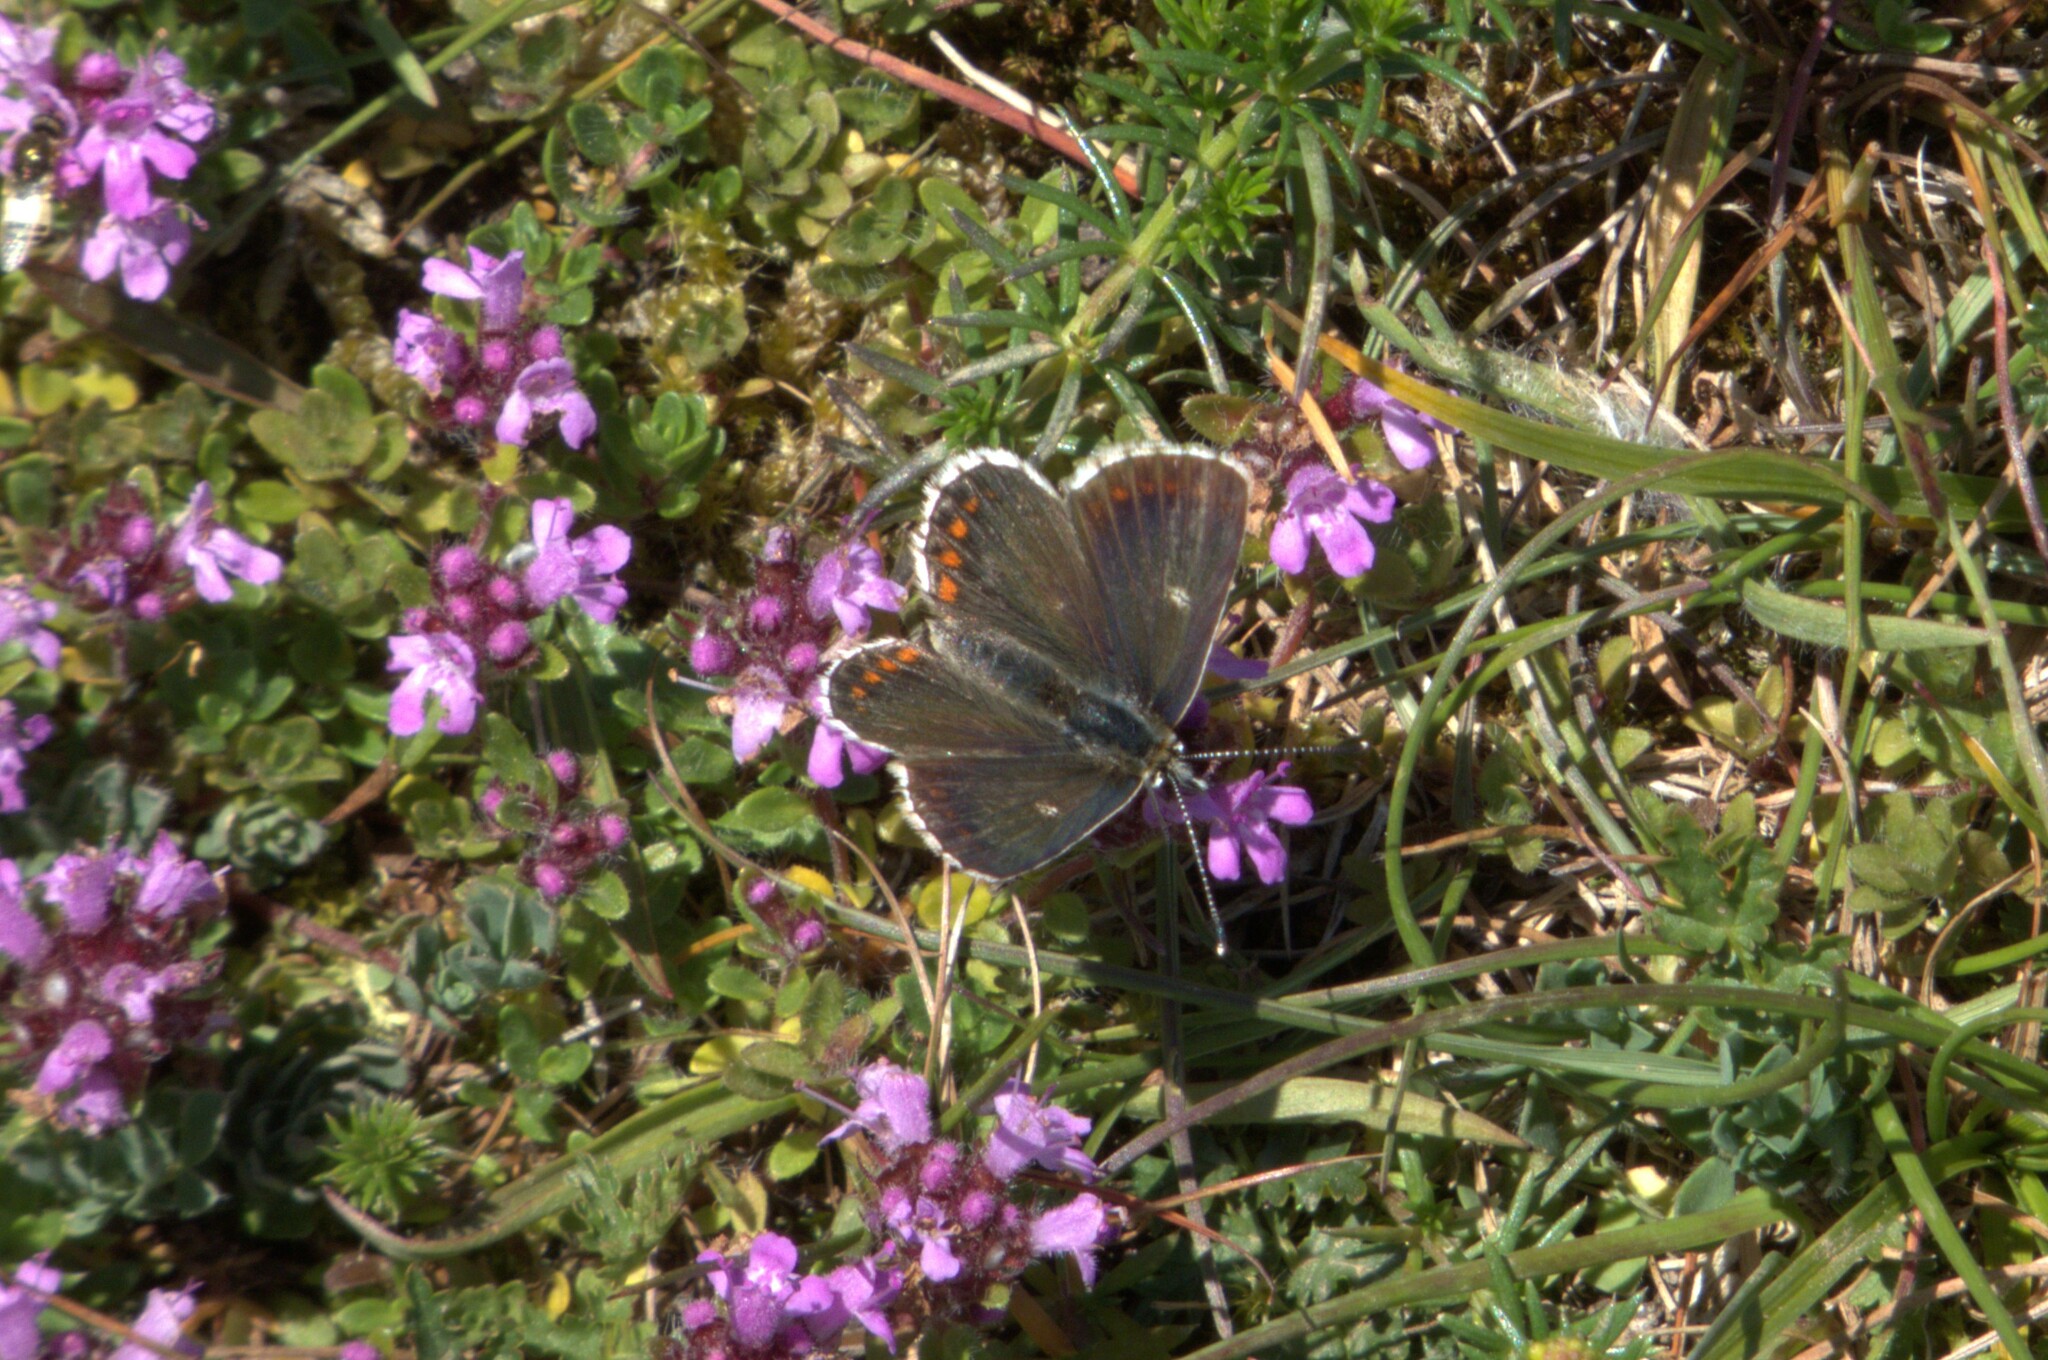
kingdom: Animalia
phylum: Arthropoda
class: Insecta
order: Lepidoptera
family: Lycaenidae
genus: Aricia
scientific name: Aricia artaxerxes
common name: Northern brown argus
